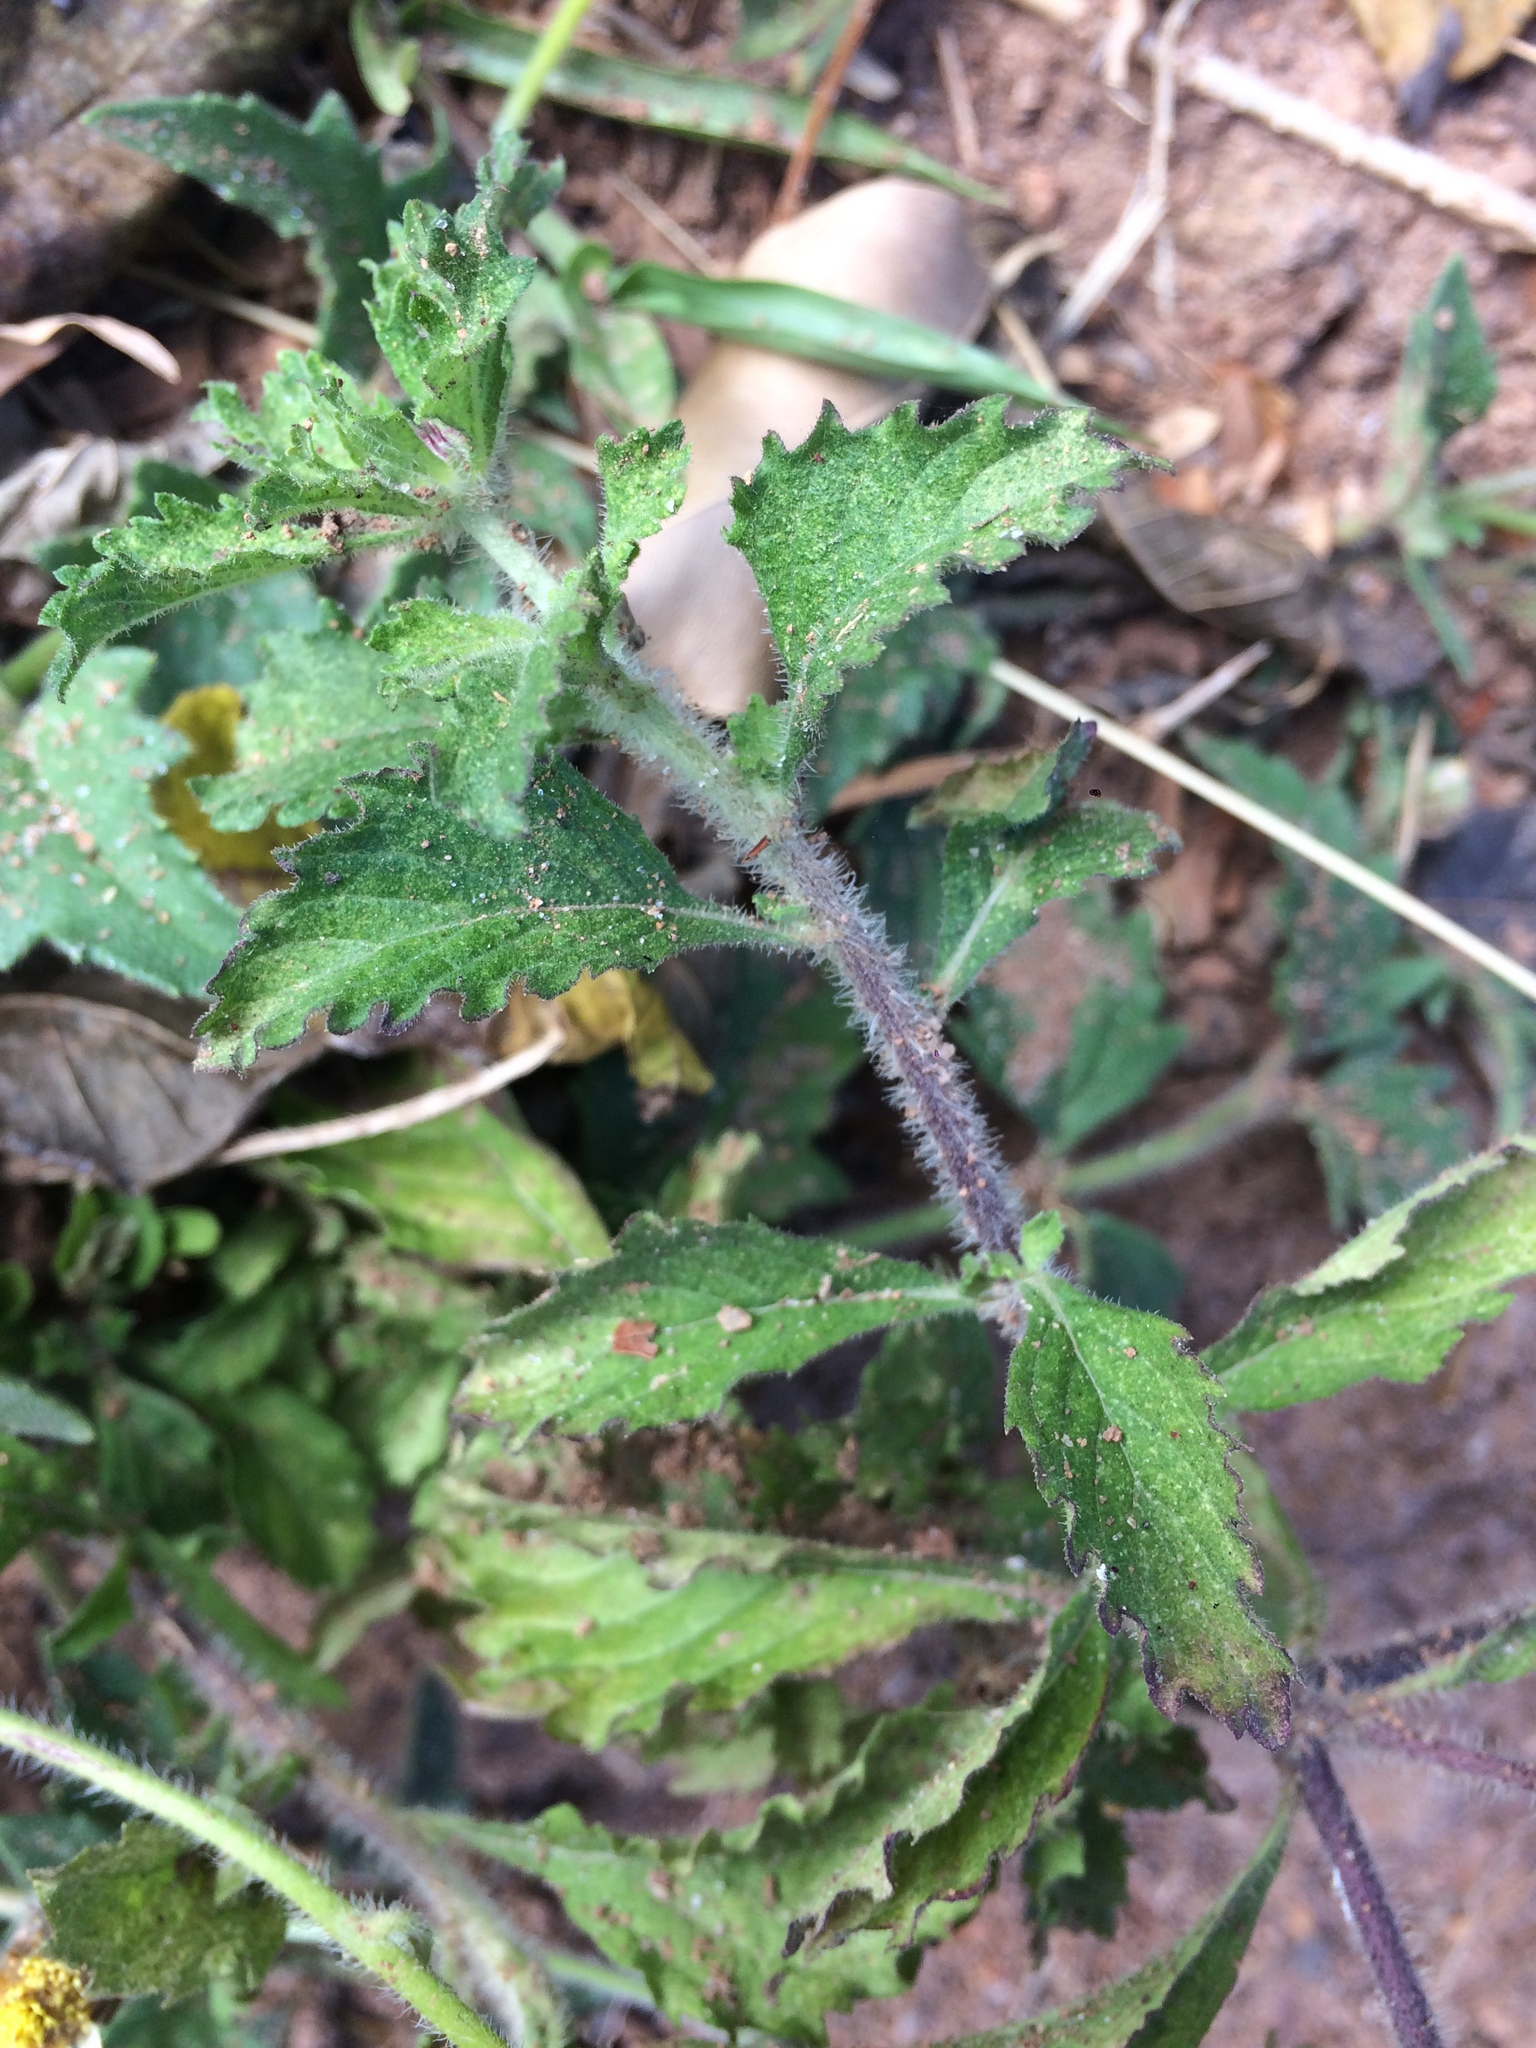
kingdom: Plantae
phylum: Tracheophyta
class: Magnoliopsida
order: Asterales
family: Asteraceae
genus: Centratherum
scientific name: Centratherum punctatum
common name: Larkdaisy
